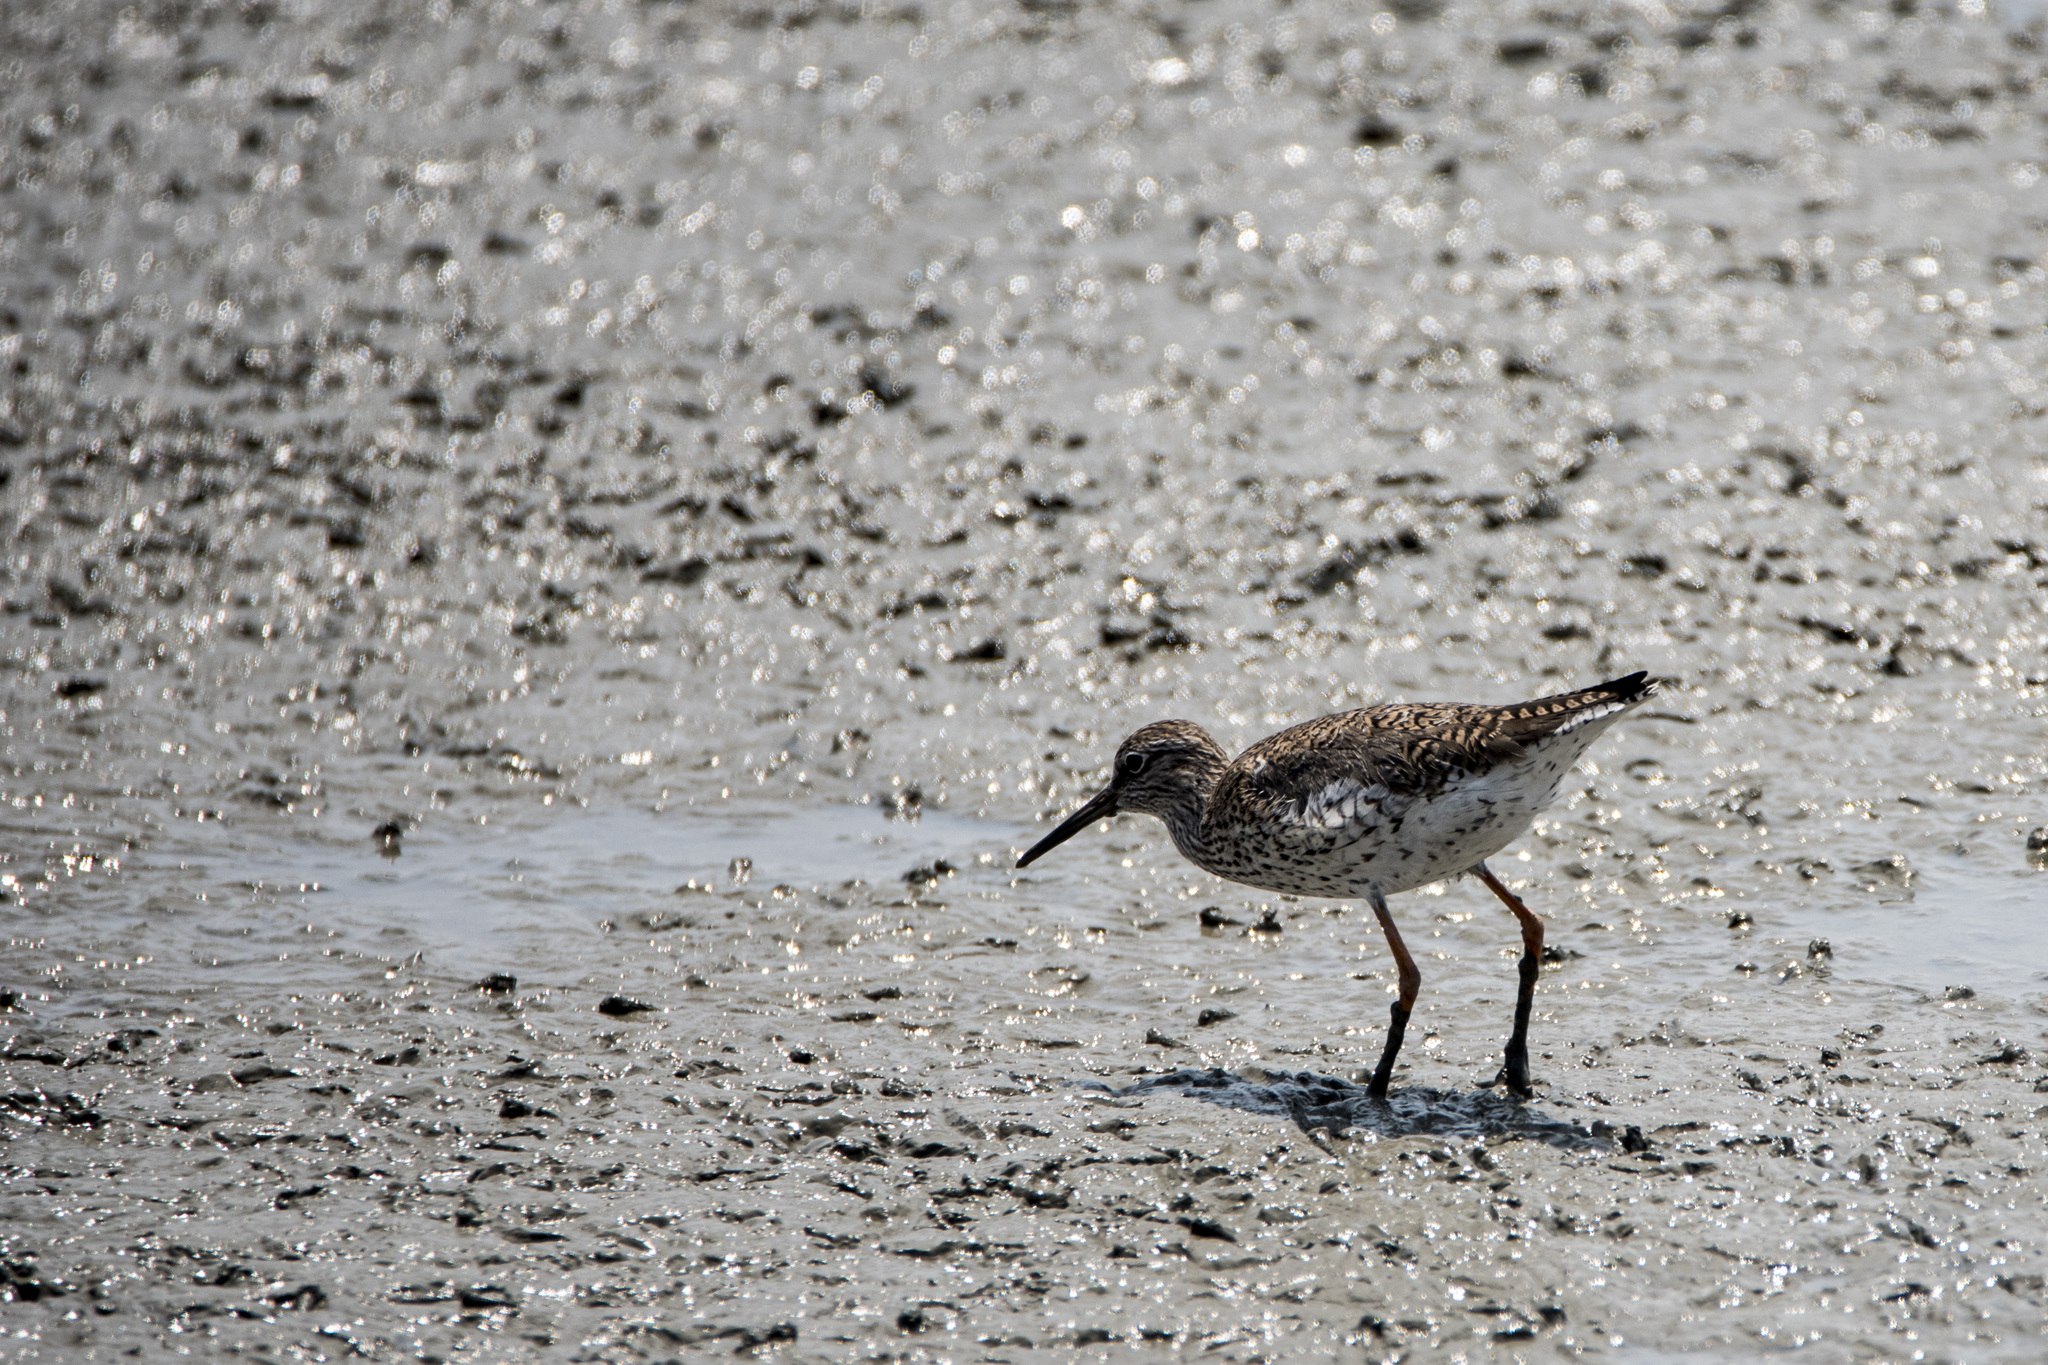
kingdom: Animalia
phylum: Chordata
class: Aves
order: Charadriiformes
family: Scolopacidae
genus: Tringa
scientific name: Tringa totanus
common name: Common redshank
